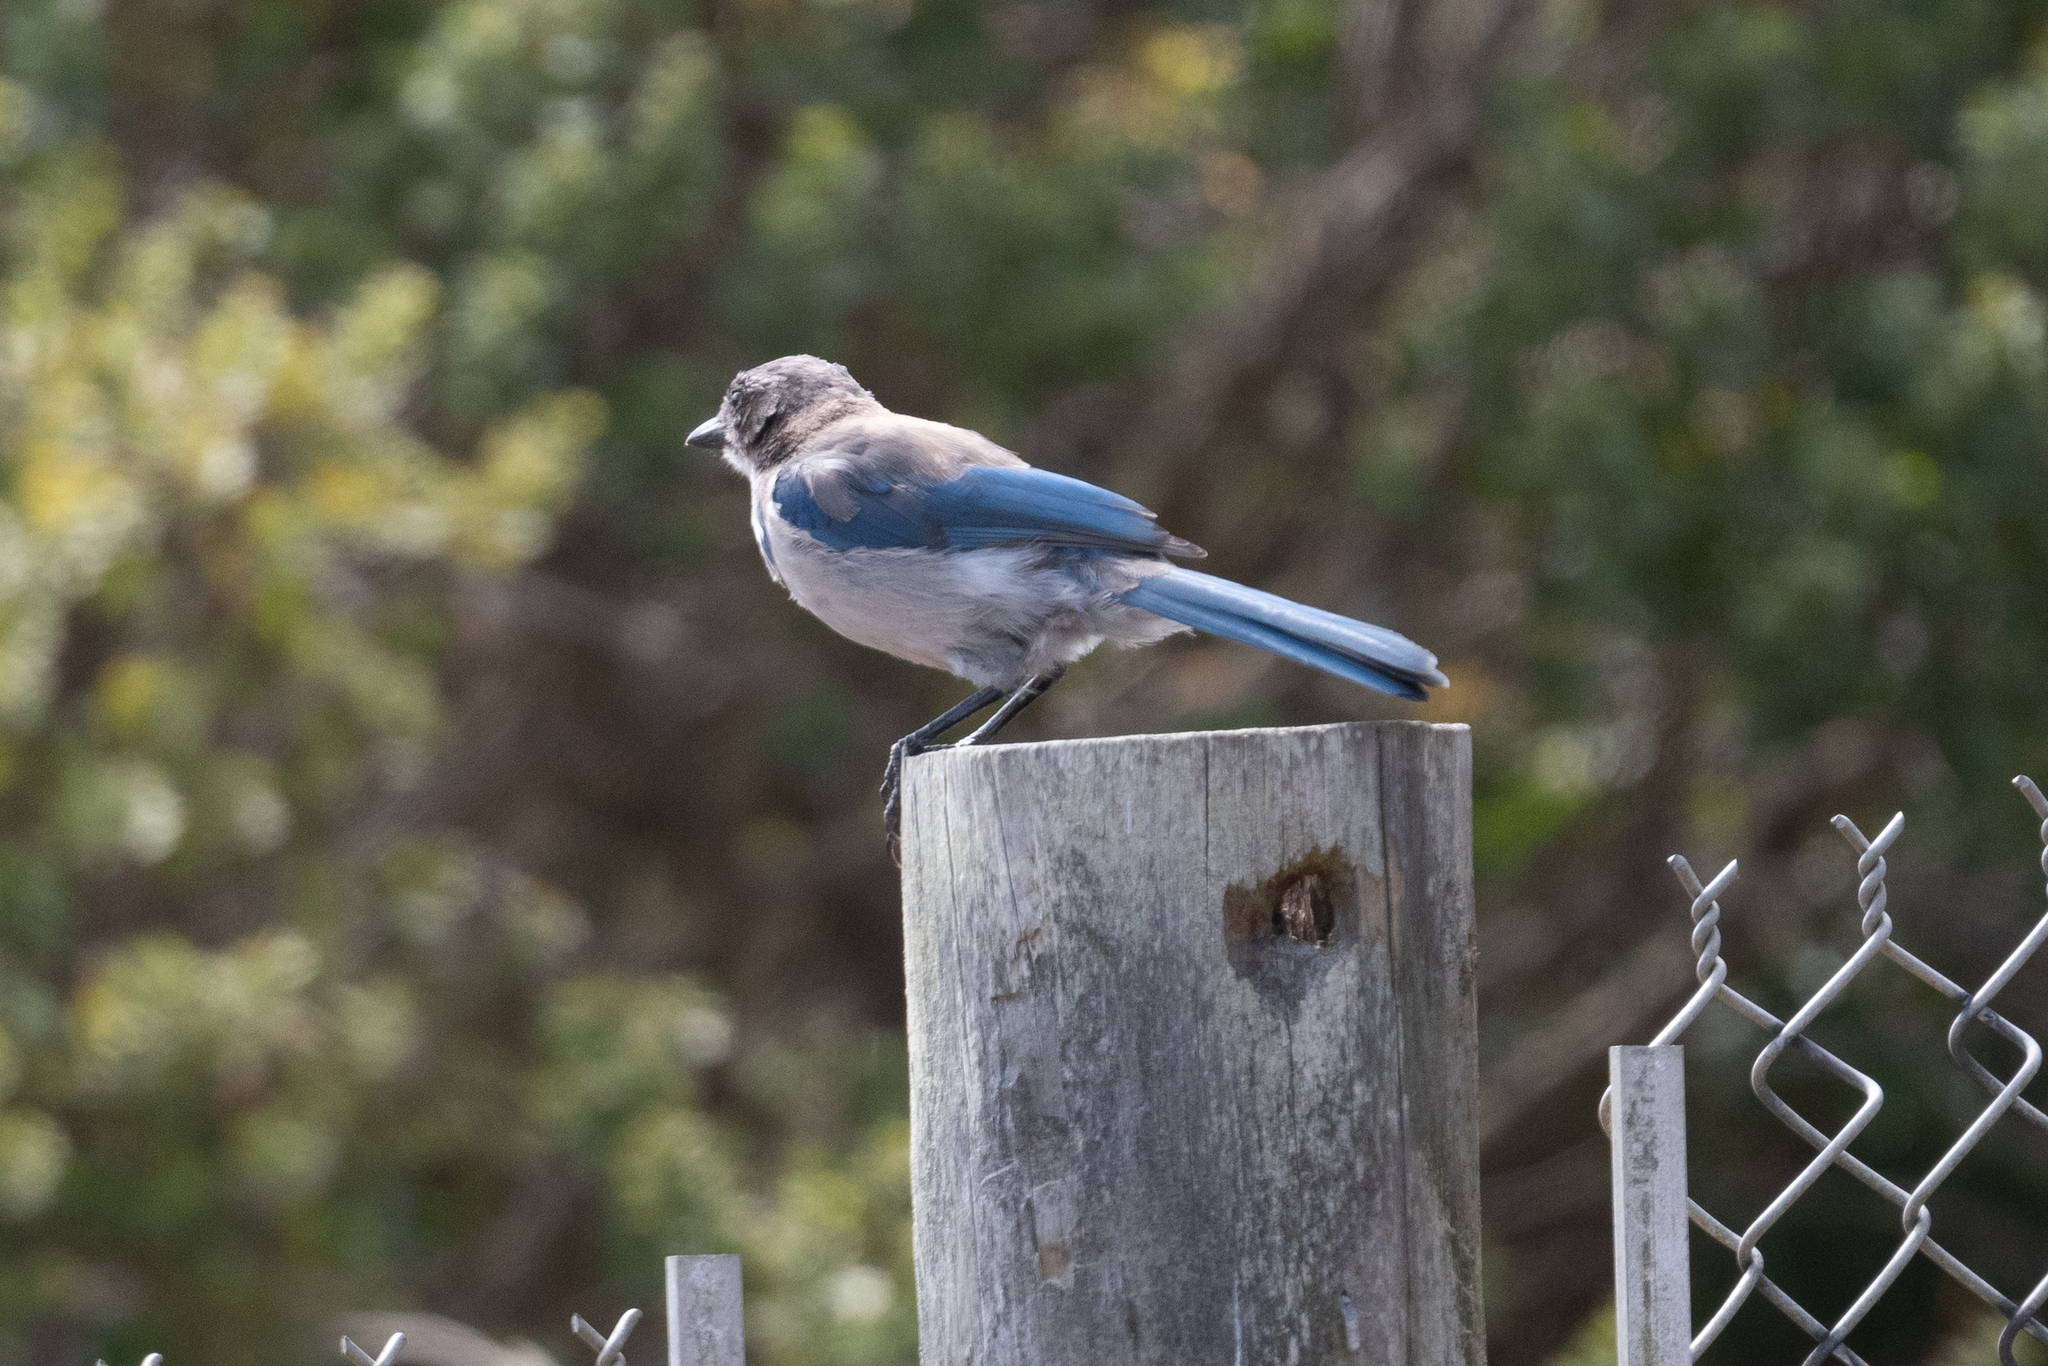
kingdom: Animalia
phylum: Chordata
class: Aves
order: Passeriformes
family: Corvidae
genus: Aphelocoma
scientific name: Aphelocoma californica
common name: California scrub-jay
